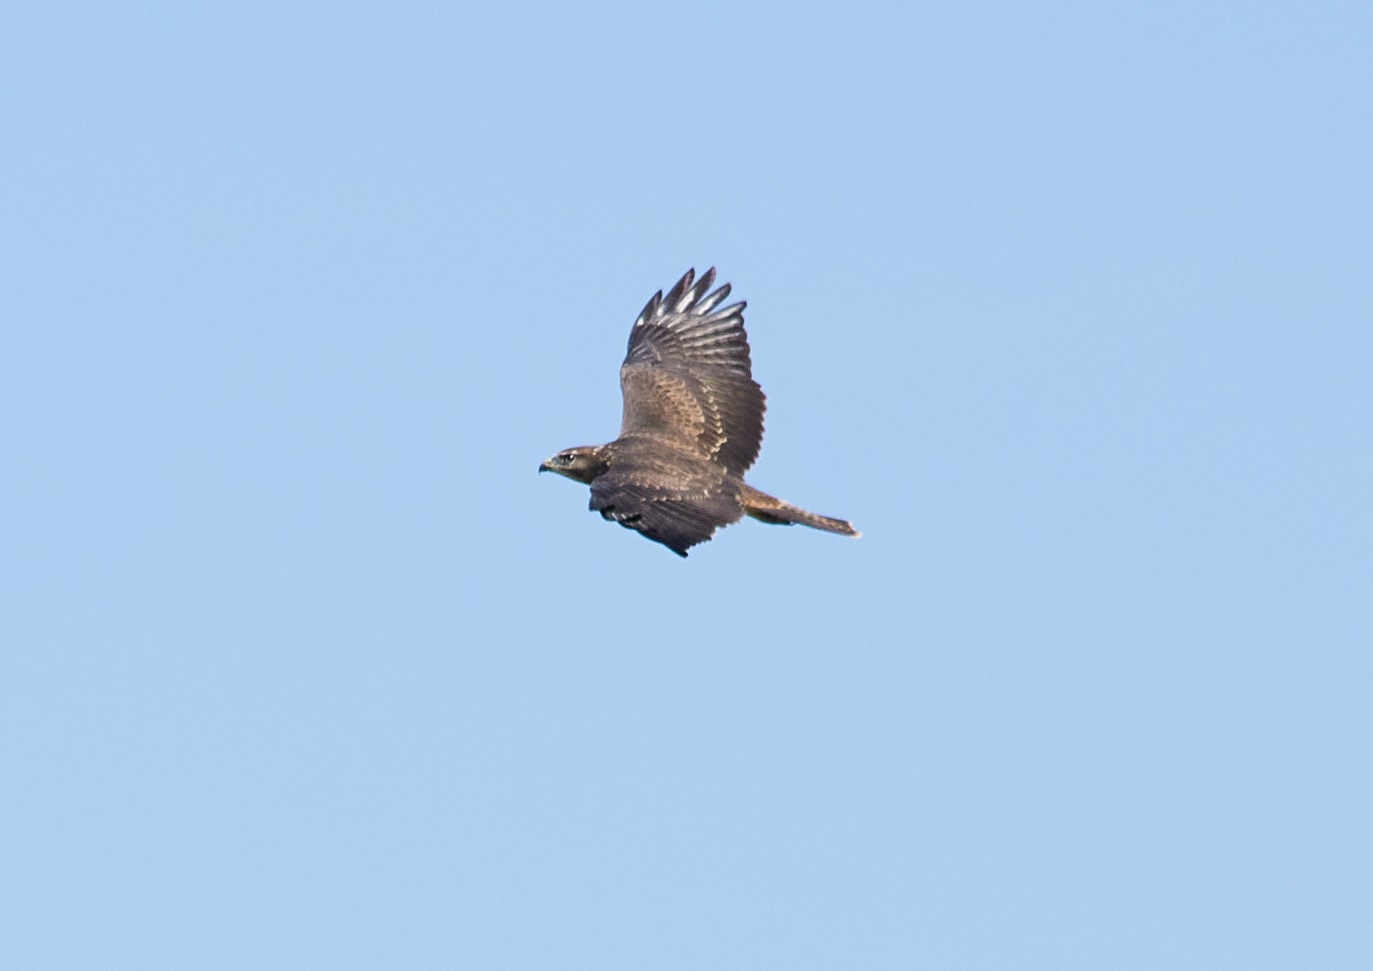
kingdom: Animalia
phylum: Chordata
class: Aves
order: Accipitriformes
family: Accipitridae
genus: Buteo
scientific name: Buteo buteo
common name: Common buzzard
